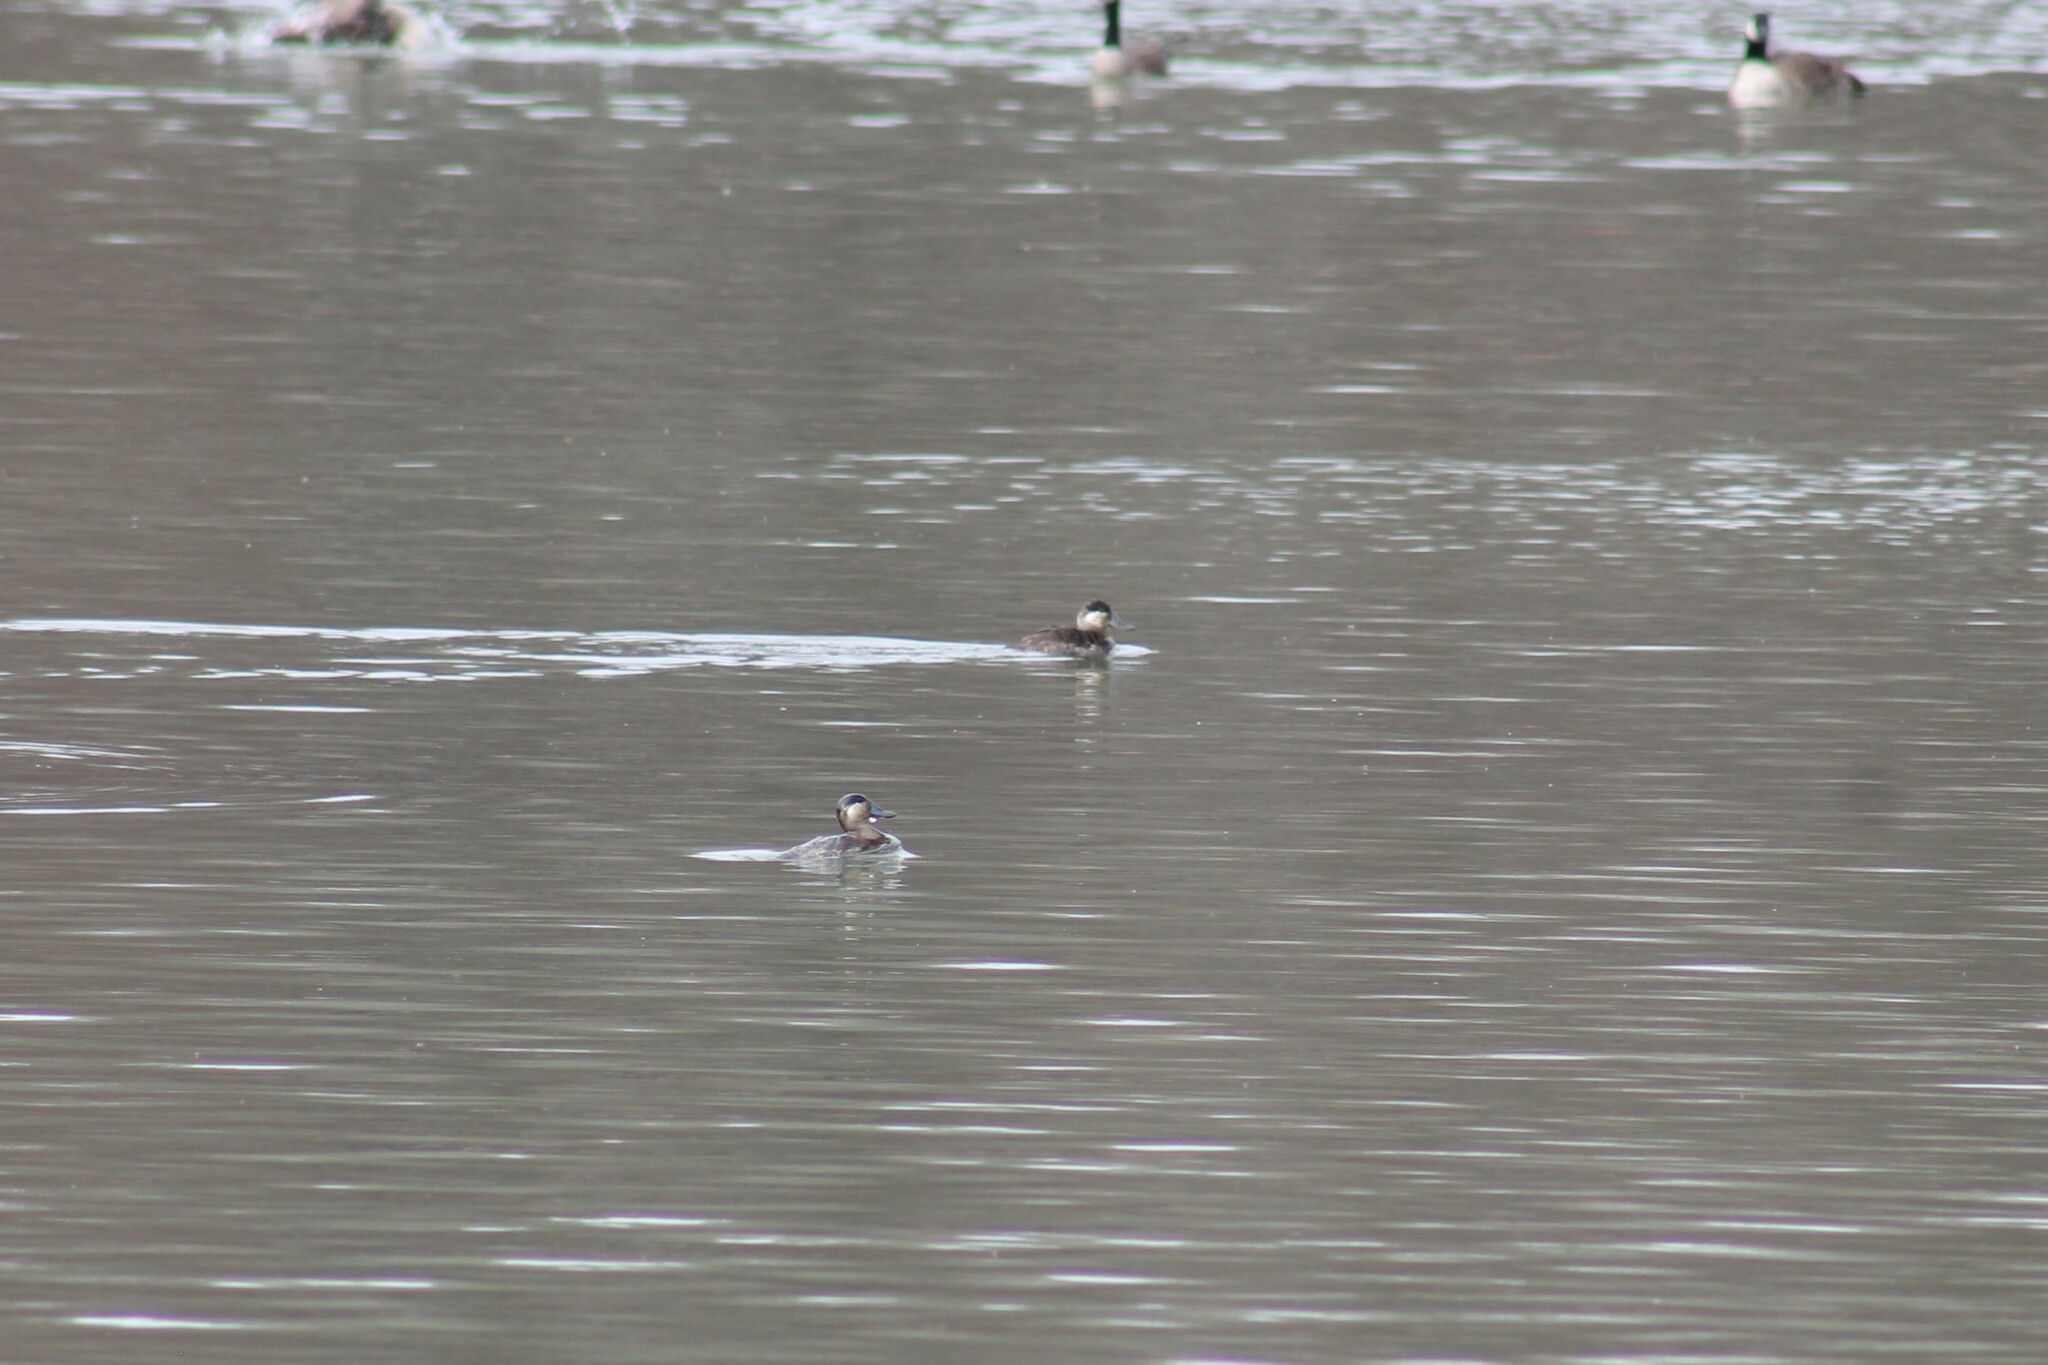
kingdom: Animalia
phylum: Chordata
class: Aves
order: Anseriformes
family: Anatidae
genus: Oxyura
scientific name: Oxyura jamaicensis
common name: Ruddy duck
